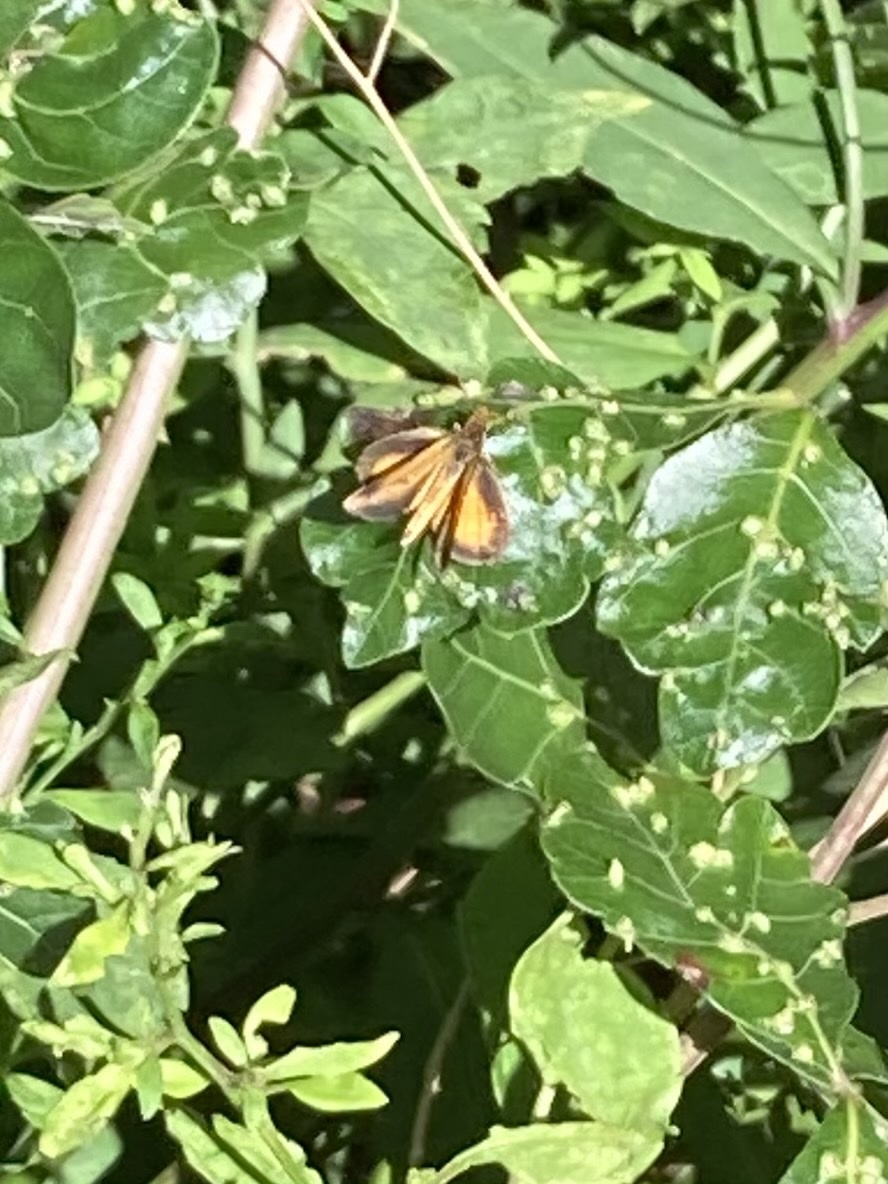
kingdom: Animalia
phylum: Arthropoda
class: Insecta
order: Lepidoptera
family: Hesperiidae
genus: Ancyloxypha
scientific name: Ancyloxypha numitor
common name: Least skipper
